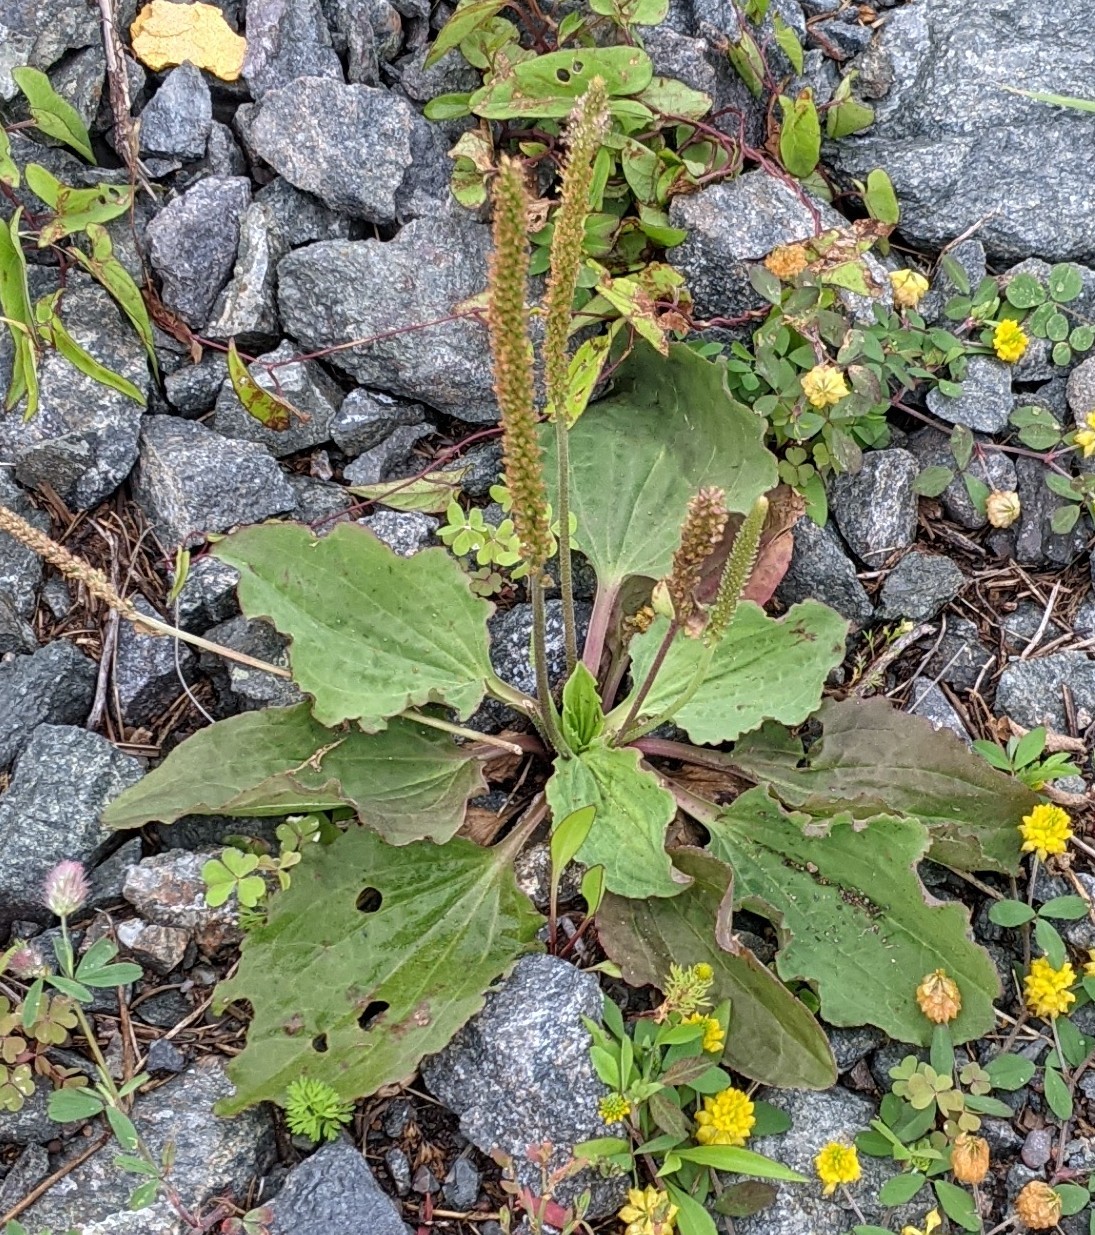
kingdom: Plantae
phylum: Tracheophyta
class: Magnoliopsida
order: Lamiales
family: Plantaginaceae
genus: Plantago
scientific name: Plantago major
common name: Common plantain
